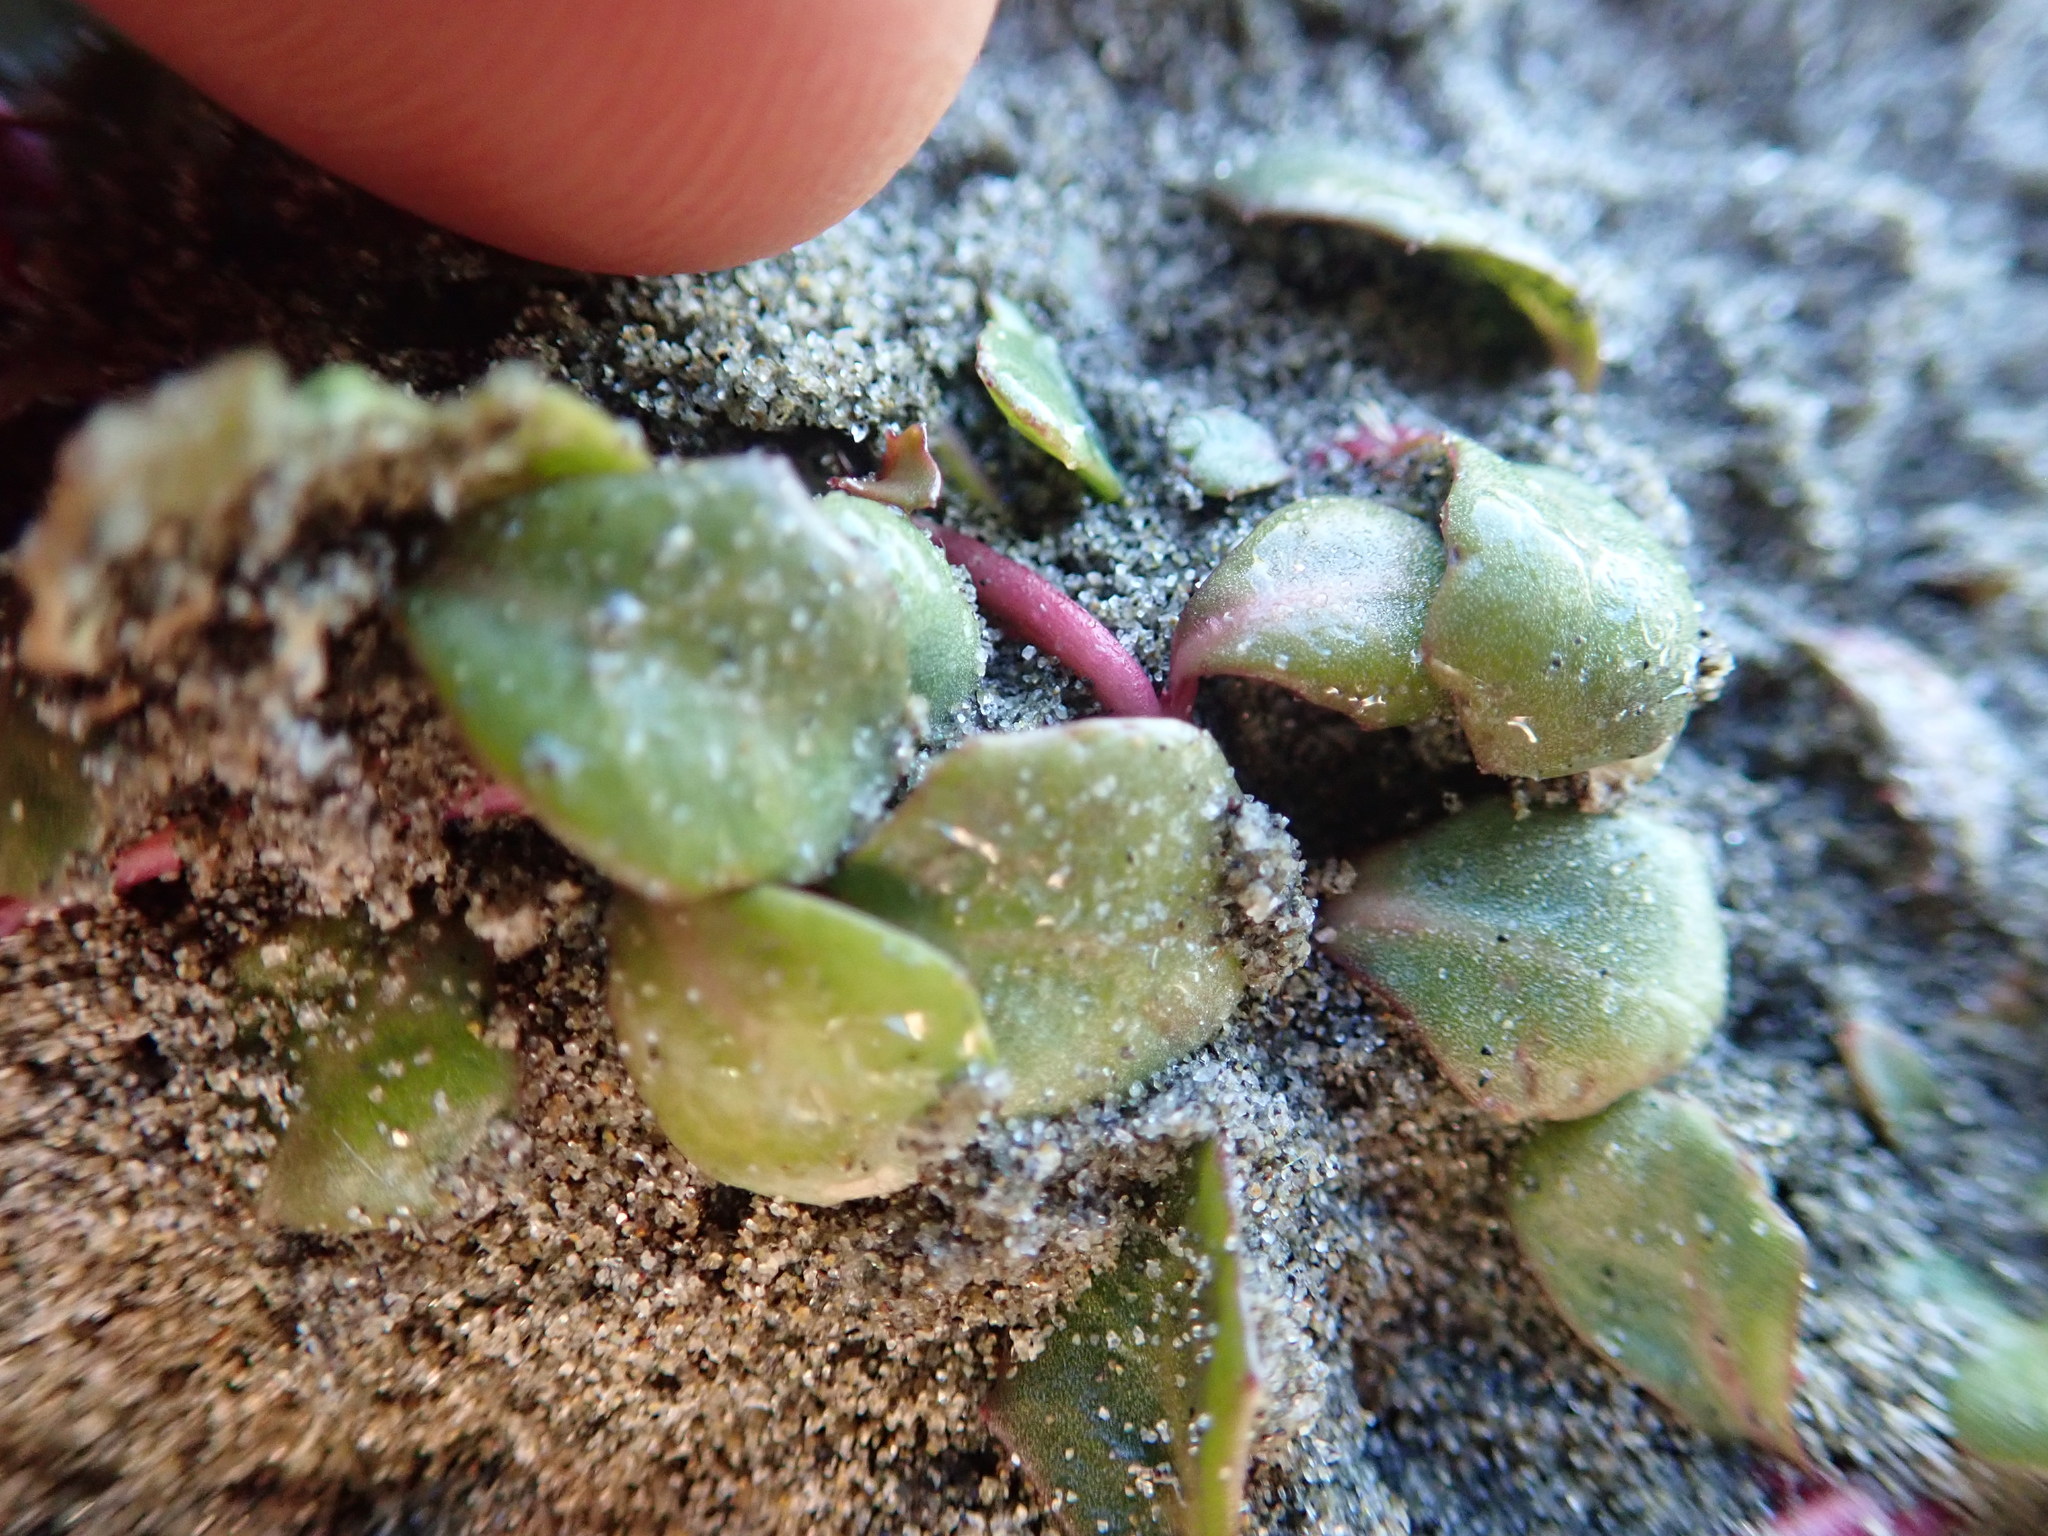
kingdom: Plantae
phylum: Tracheophyta
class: Magnoliopsida
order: Asterales
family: Campanulaceae
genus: Lobelia
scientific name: Lobelia anceps
